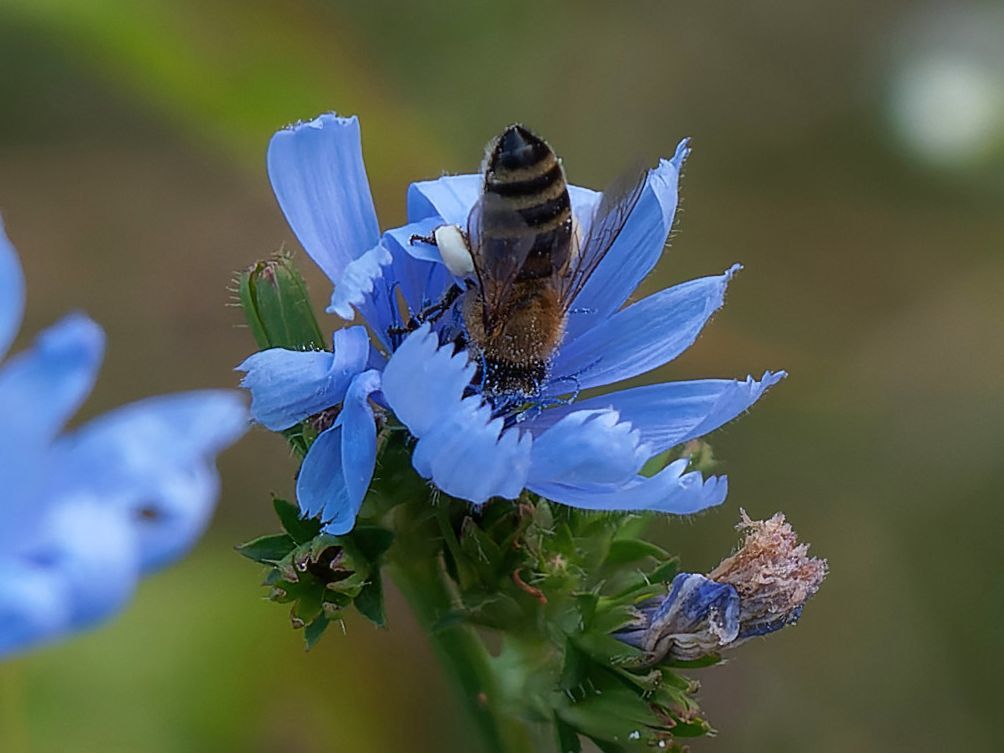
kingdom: Animalia
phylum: Arthropoda
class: Insecta
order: Hymenoptera
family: Apidae
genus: Apis
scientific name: Apis mellifera
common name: Honey bee
